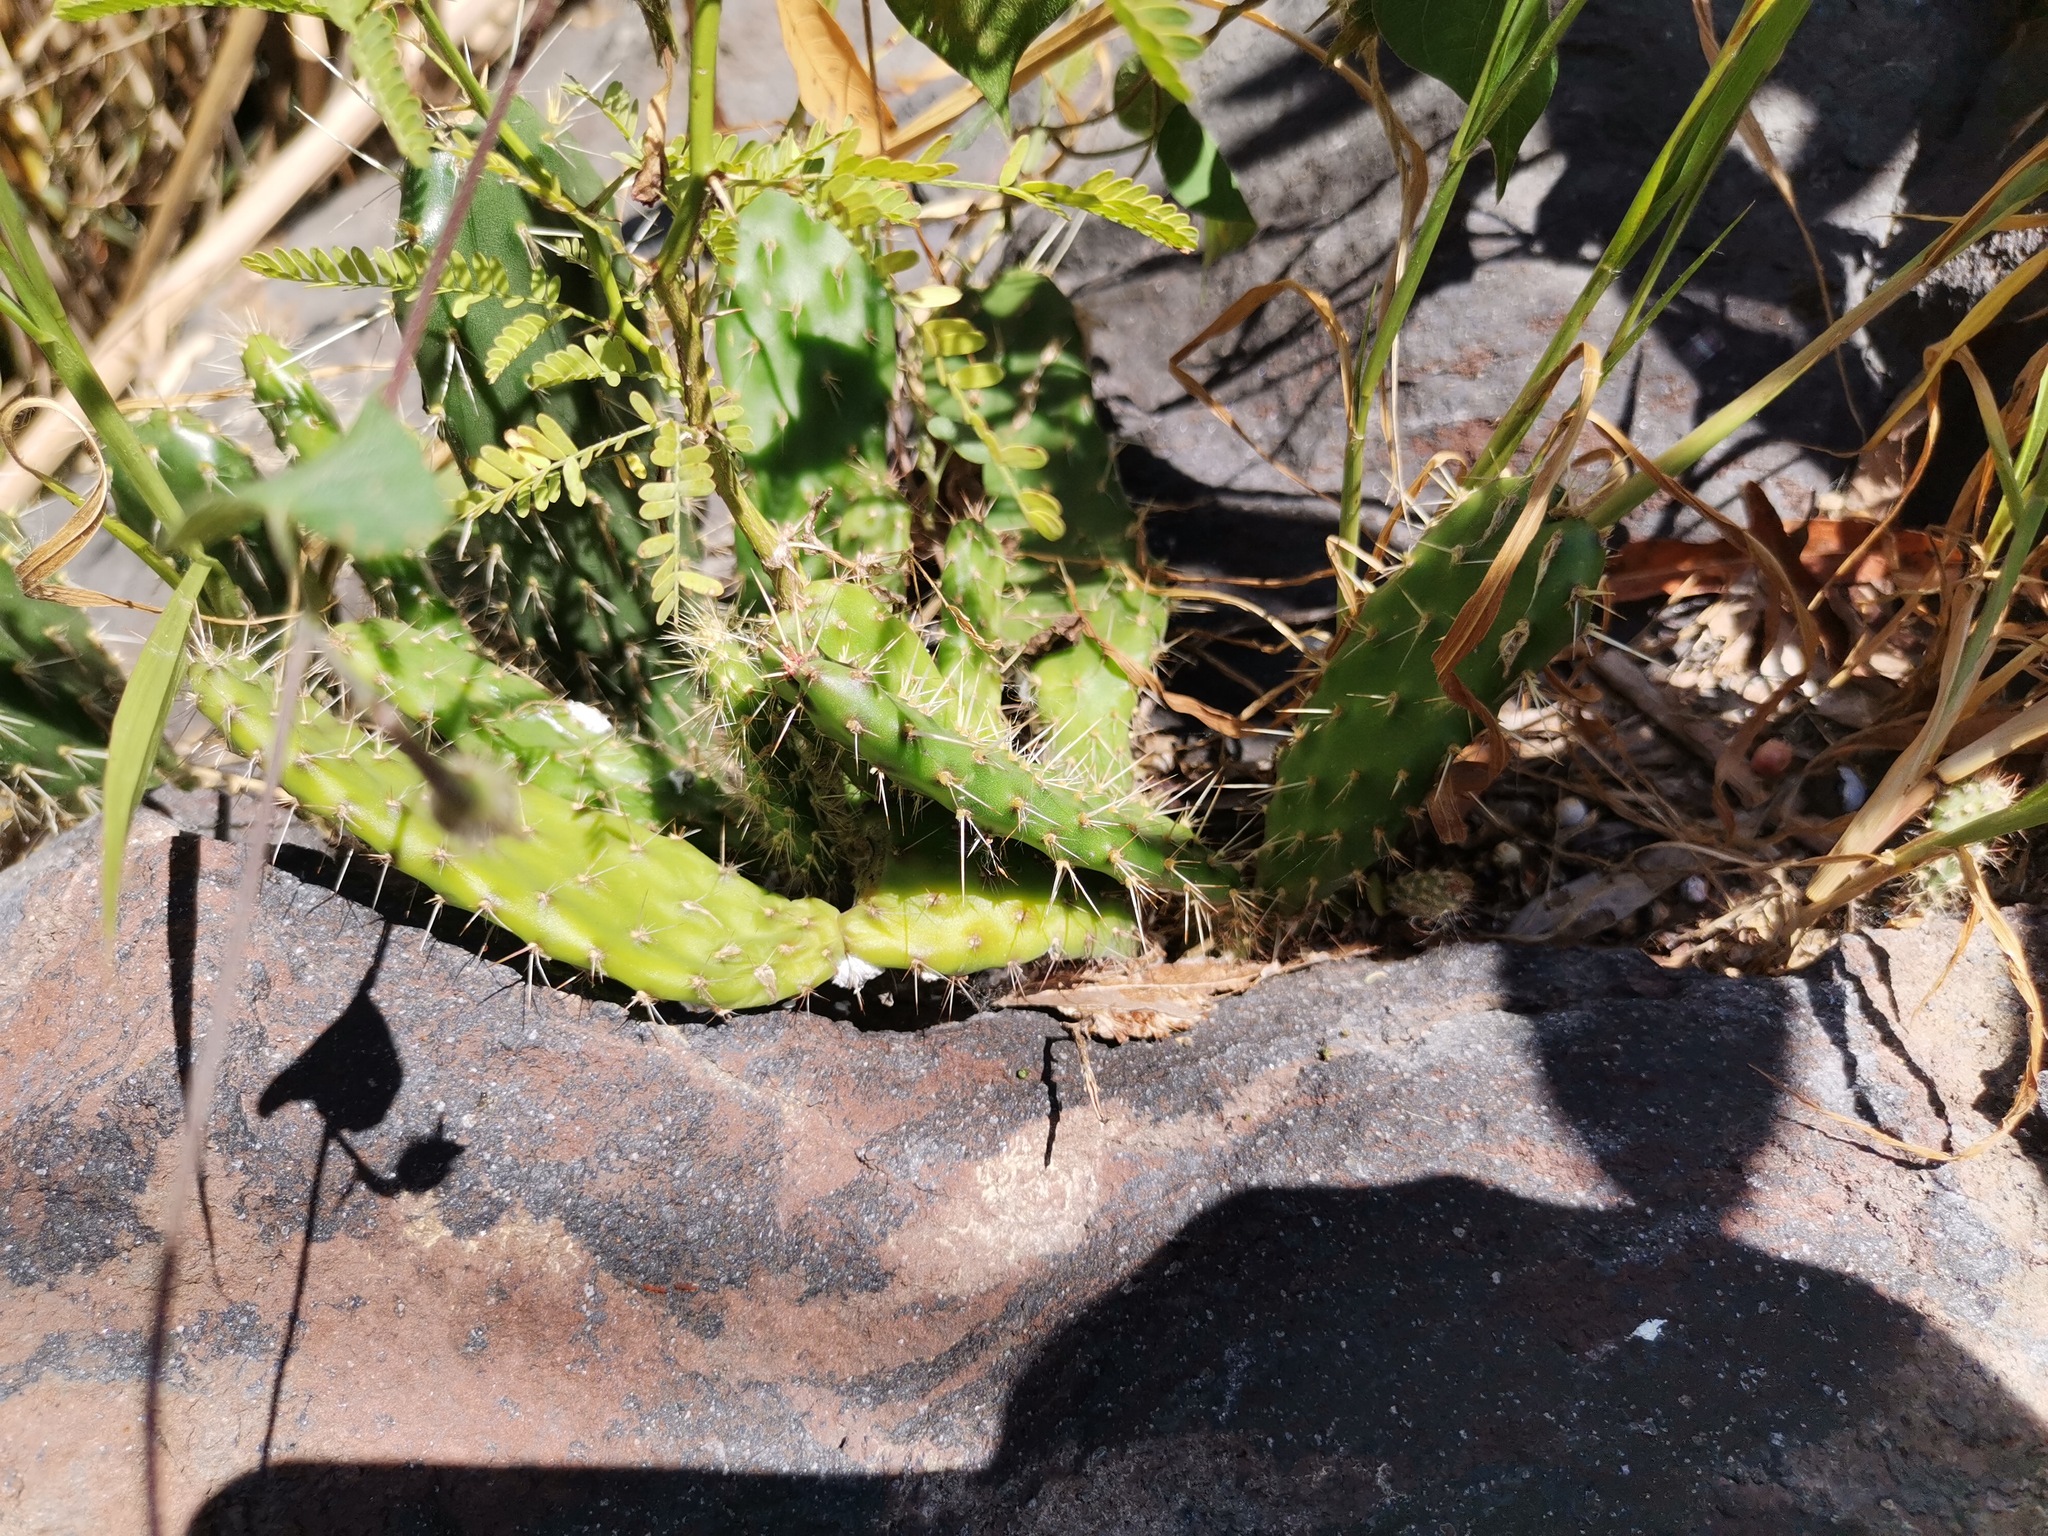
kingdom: Plantae
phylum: Tracheophyta
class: Magnoliopsida
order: Caryophyllales
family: Cactaceae
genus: Opuntia
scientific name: Opuntia lasiacantha
